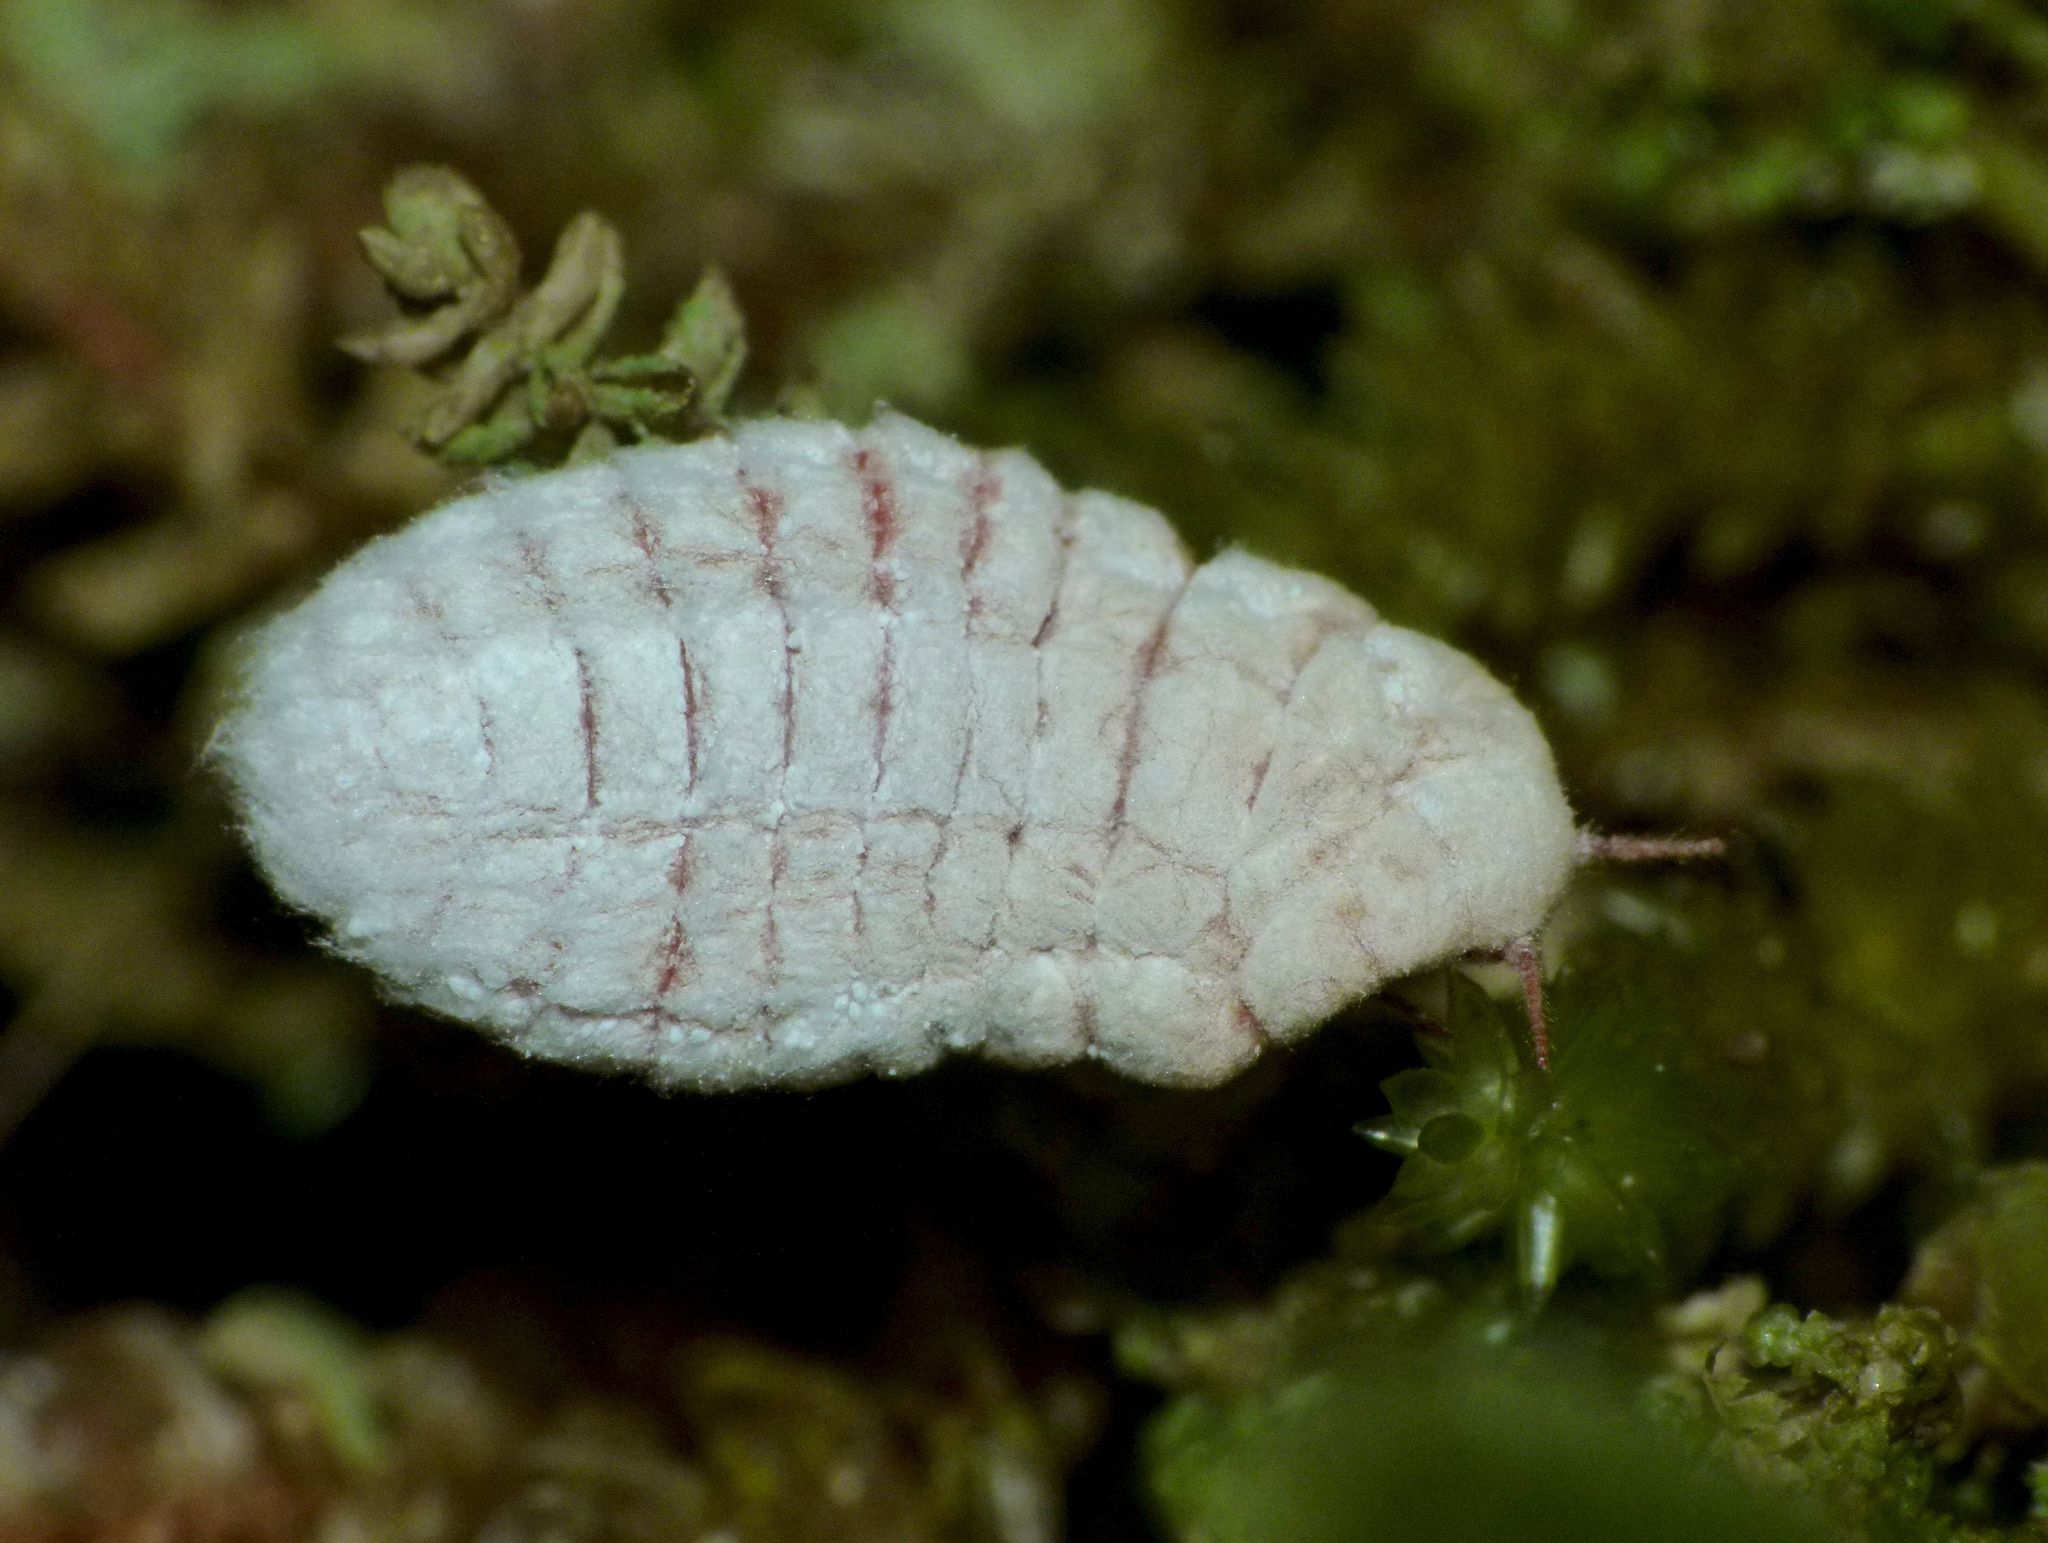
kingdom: Animalia
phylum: Arthropoda
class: Insecta
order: Hemiptera
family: Margarodidae
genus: Coelostomidia
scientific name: Coelostomidia zealandica
